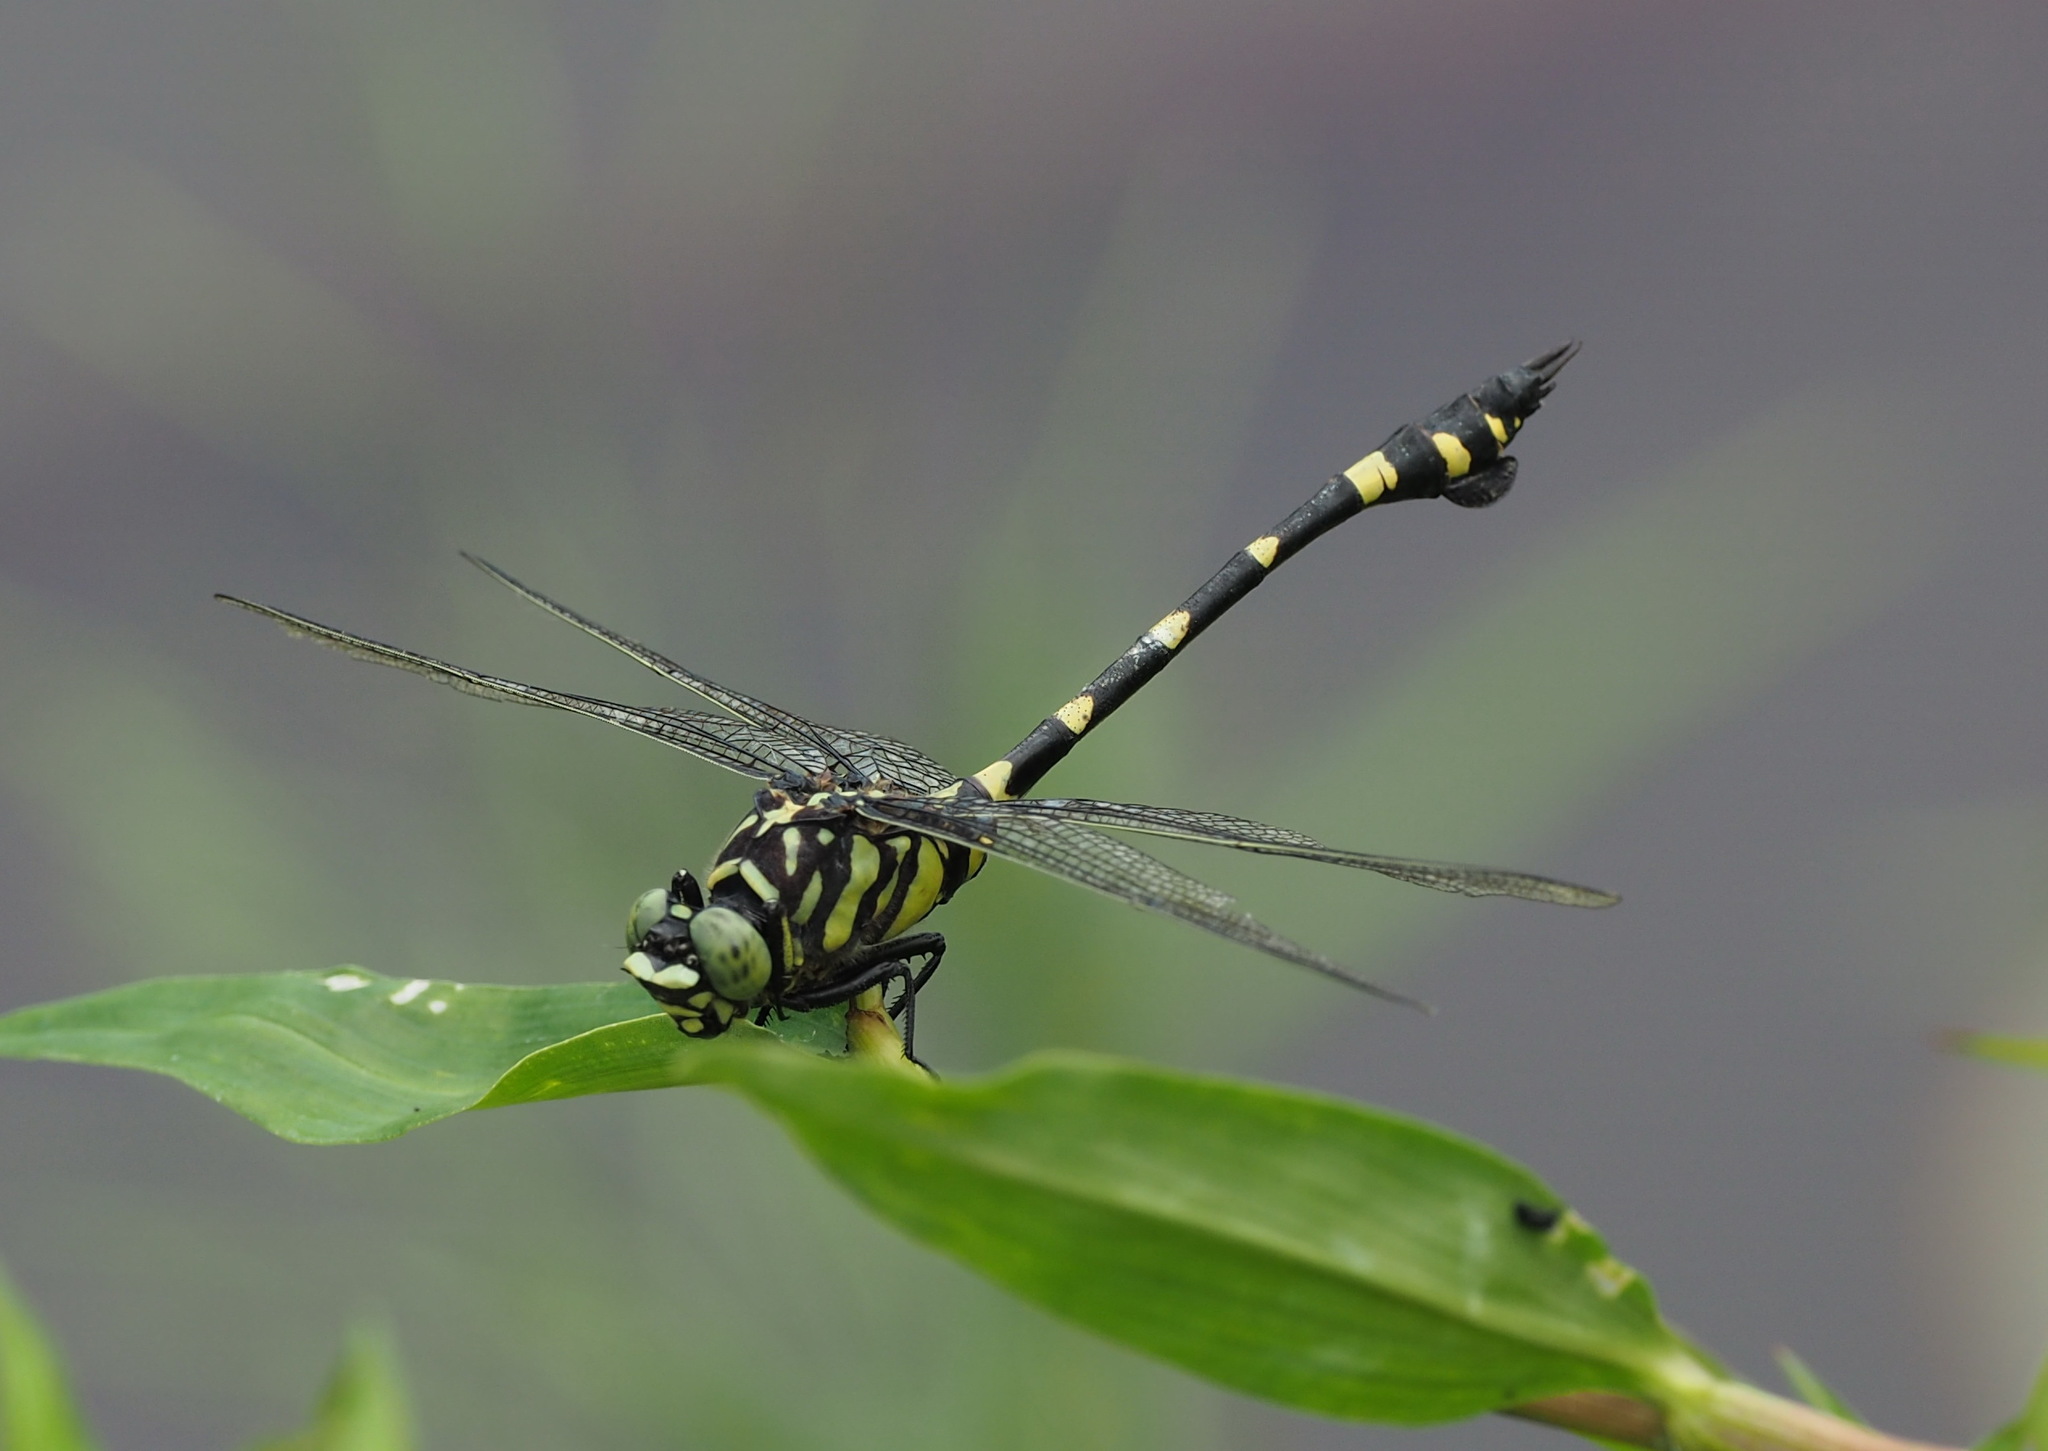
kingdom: Animalia
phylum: Arthropoda
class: Insecta
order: Odonata
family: Gomphidae
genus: Ictinogomphus
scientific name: Ictinogomphus rapax
